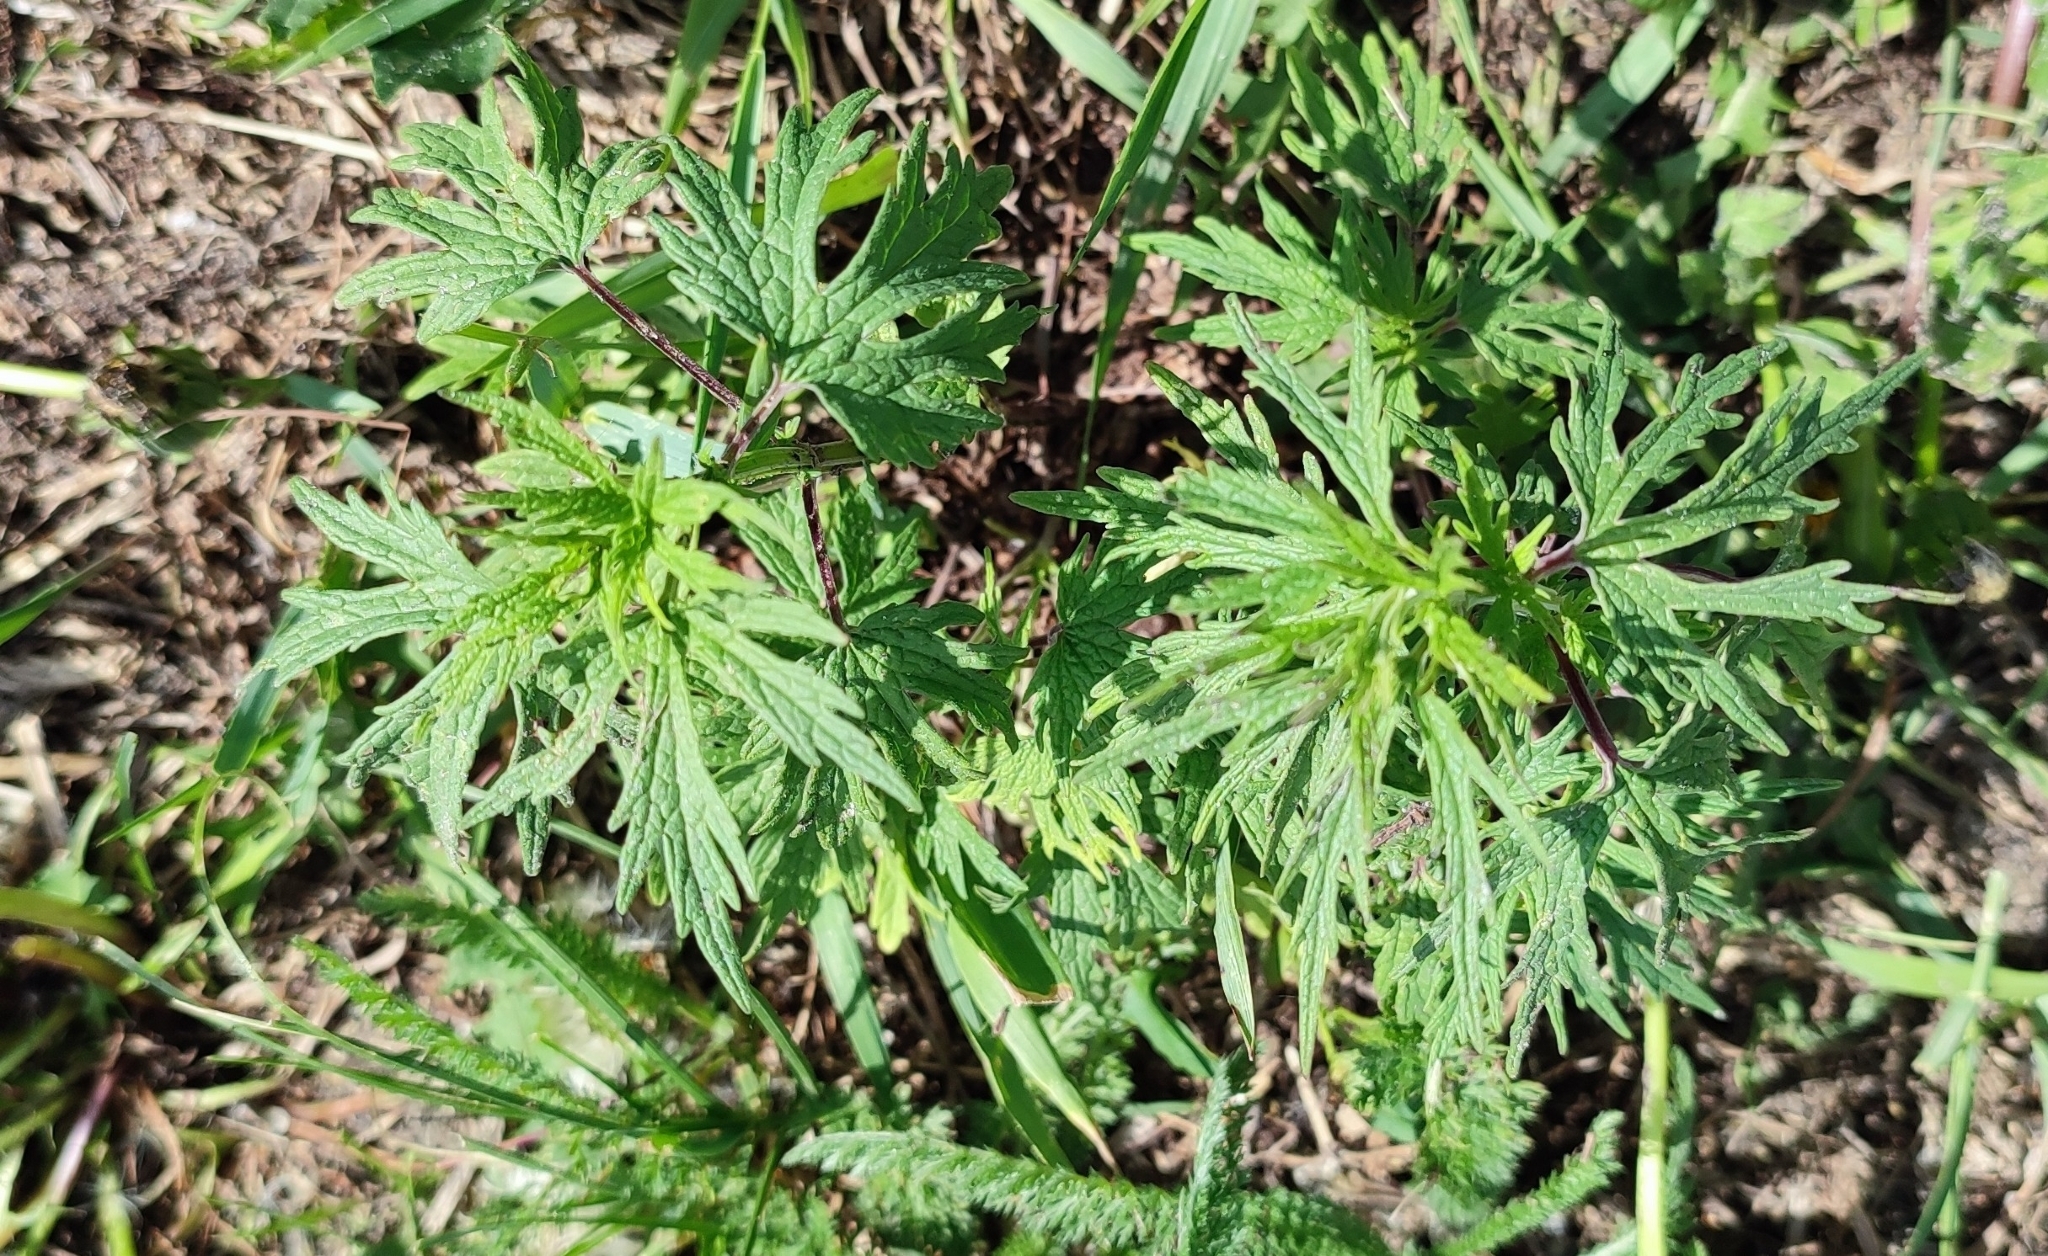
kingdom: Plantae
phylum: Tracheophyta
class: Magnoliopsida
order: Lamiales
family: Lamiaceae
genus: Leonurus
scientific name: Leonurus glaucescens
